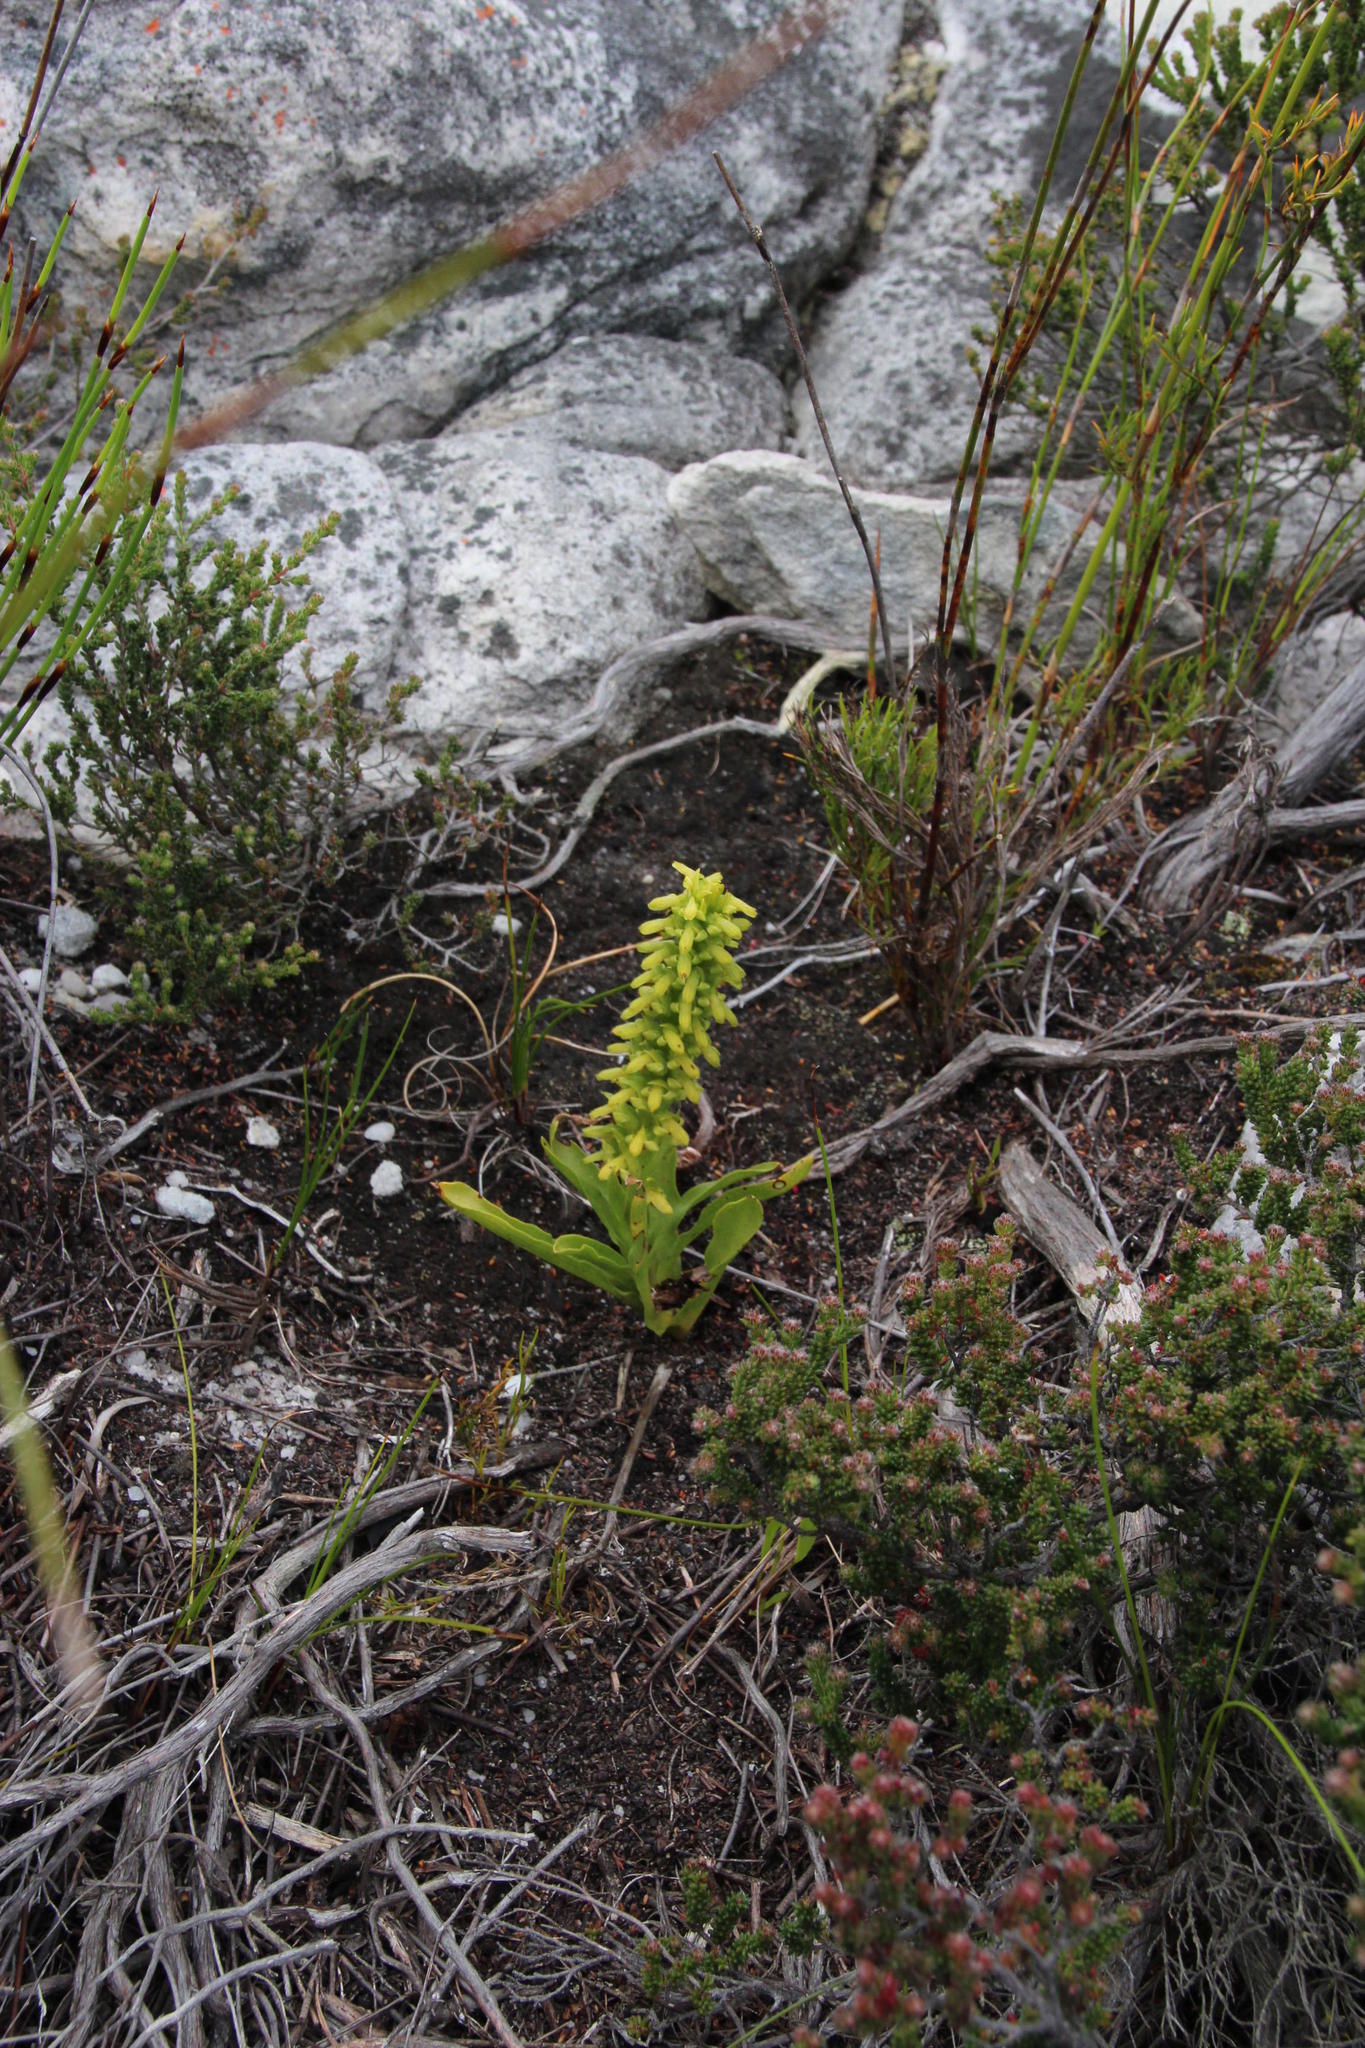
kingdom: Plantae
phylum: Tracheophyta
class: Liliopsida
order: Asparagales
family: Orchidaceae
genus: Disa
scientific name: Disa cylindrica
